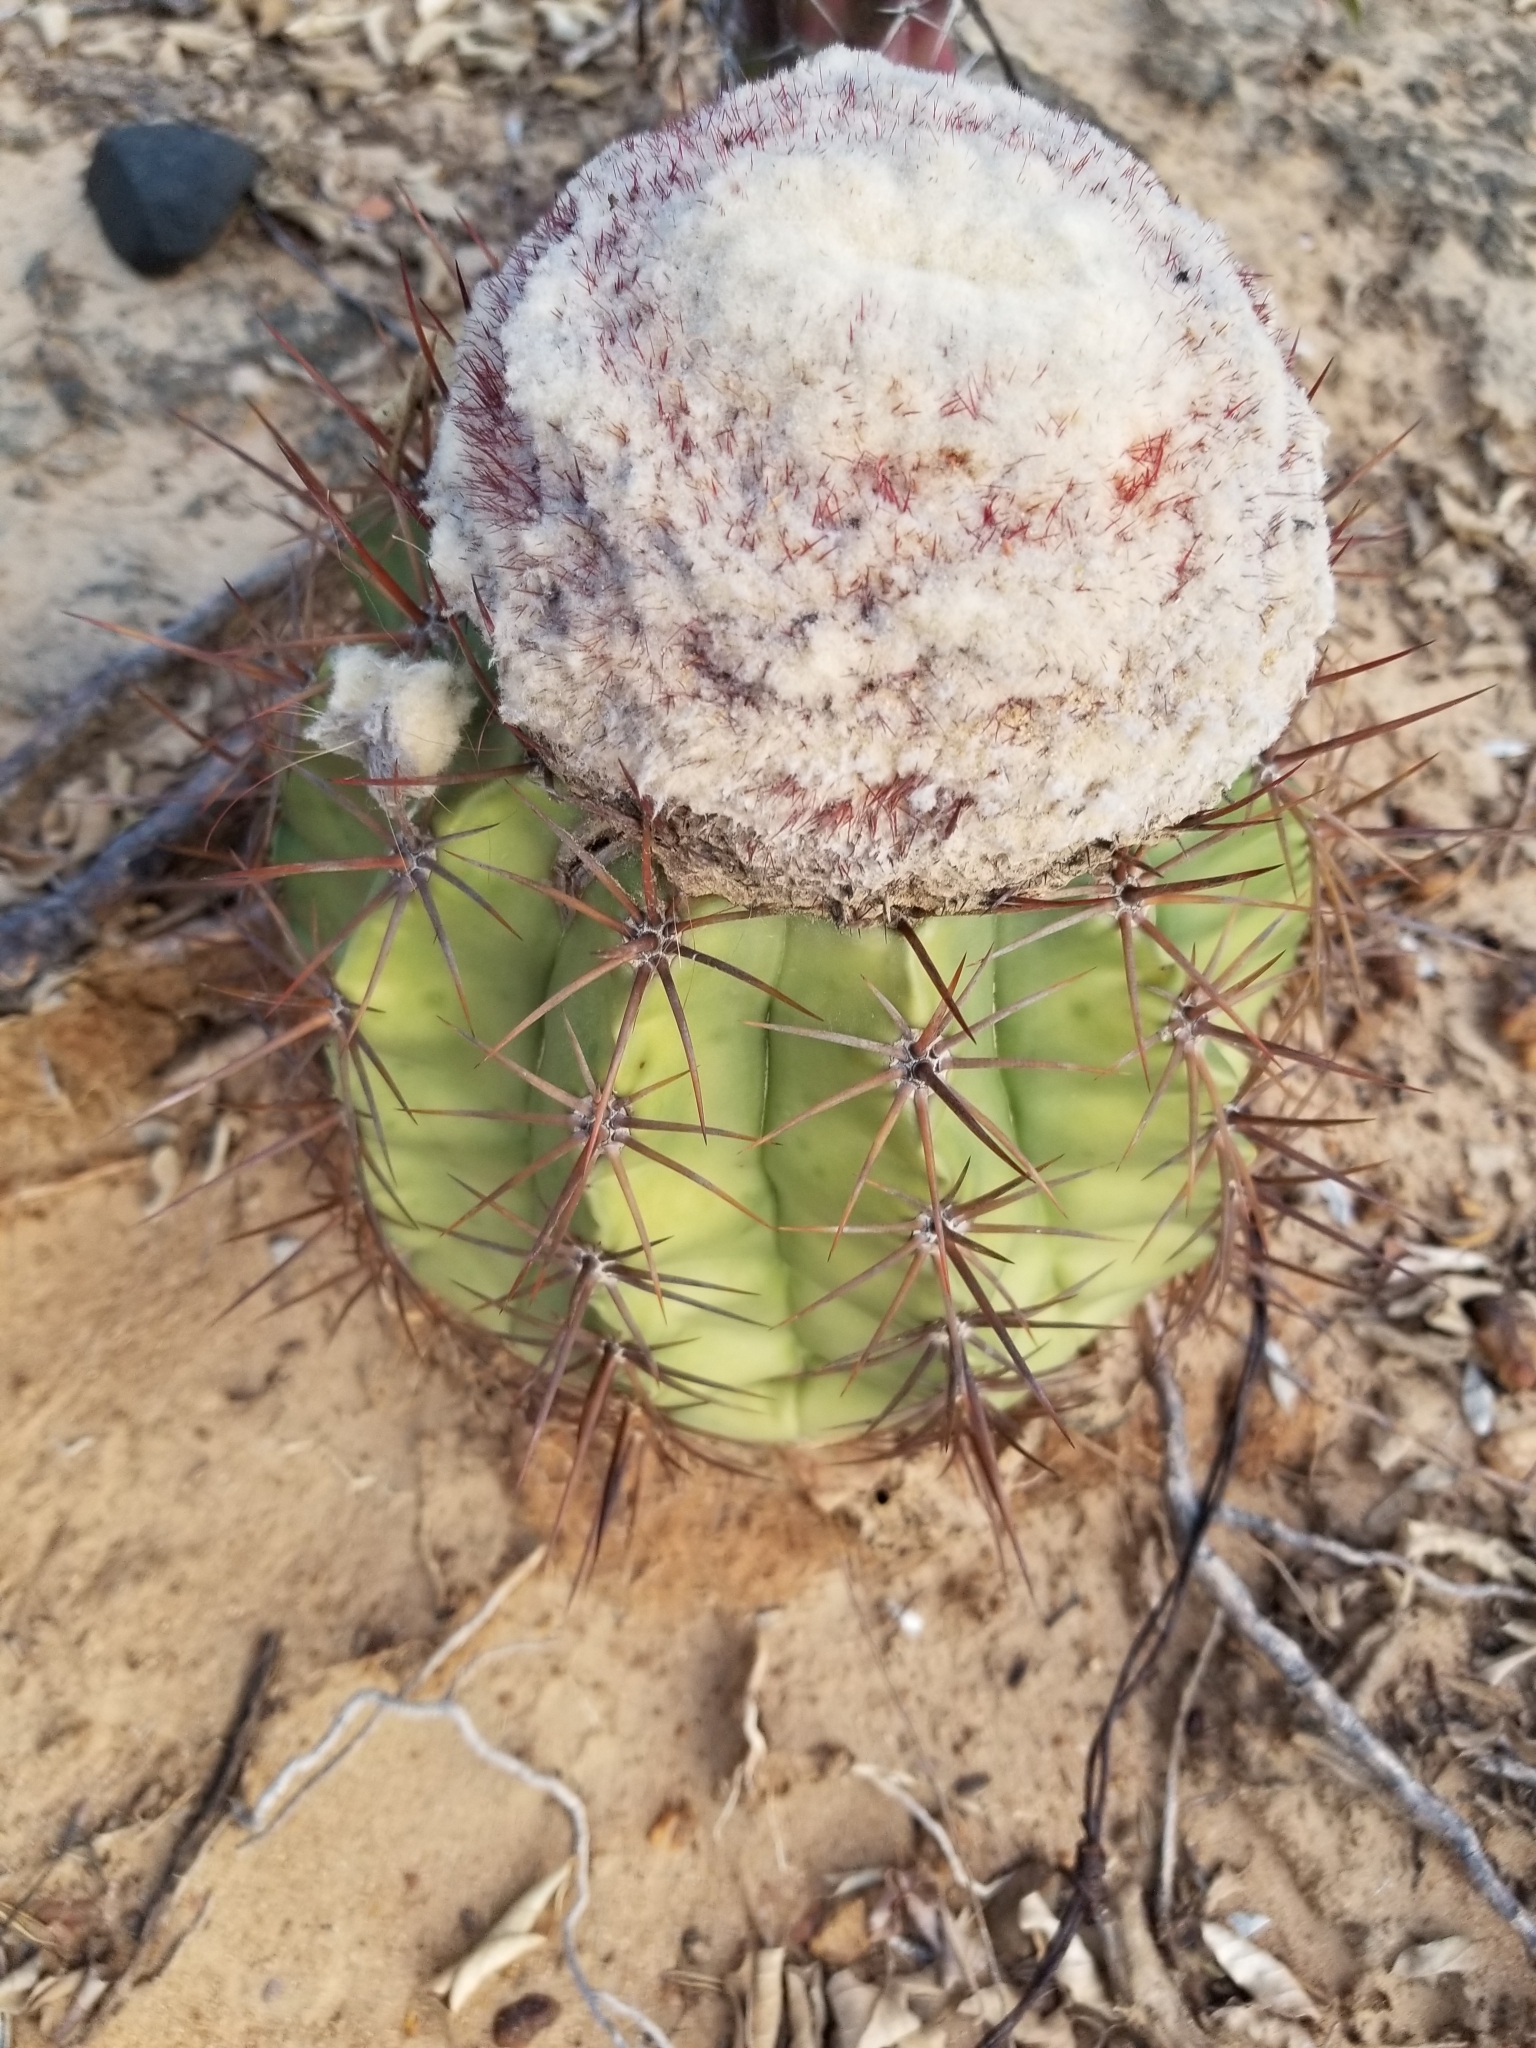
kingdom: Plantae
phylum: Tracheophyta
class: Magnoliopsida
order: Caryophyllales
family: Cactaceae
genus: Melocactus
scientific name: Melocactus curvispinus
